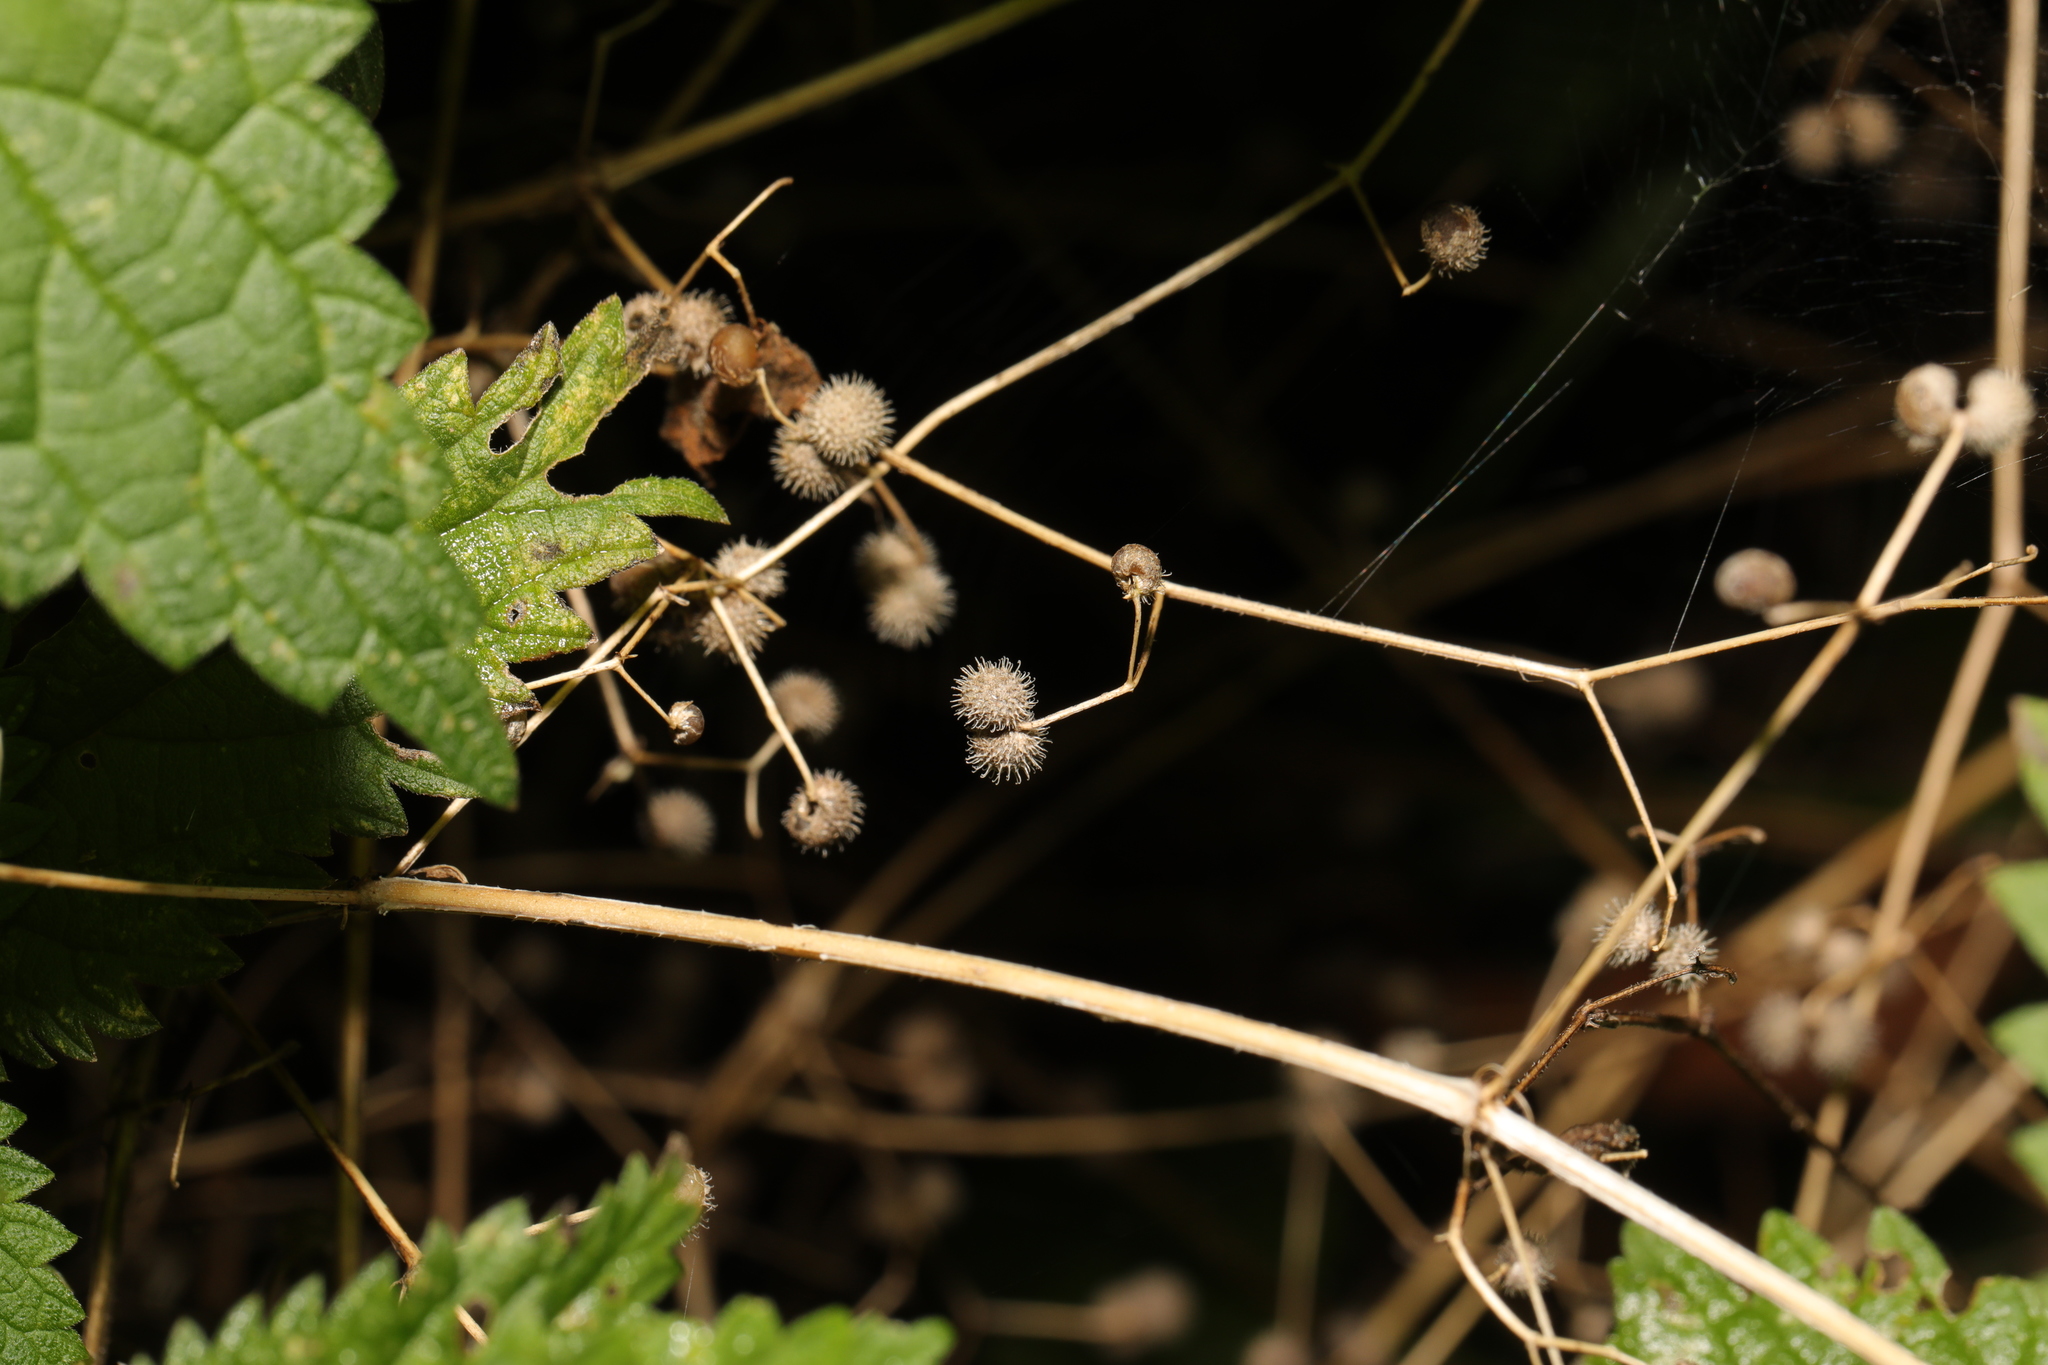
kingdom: Plantae
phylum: Tracheophyta
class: Magnoliopsida
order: Gentianales
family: Rubiaceae
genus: Galium
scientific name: Galium aparine
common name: Cleavers
